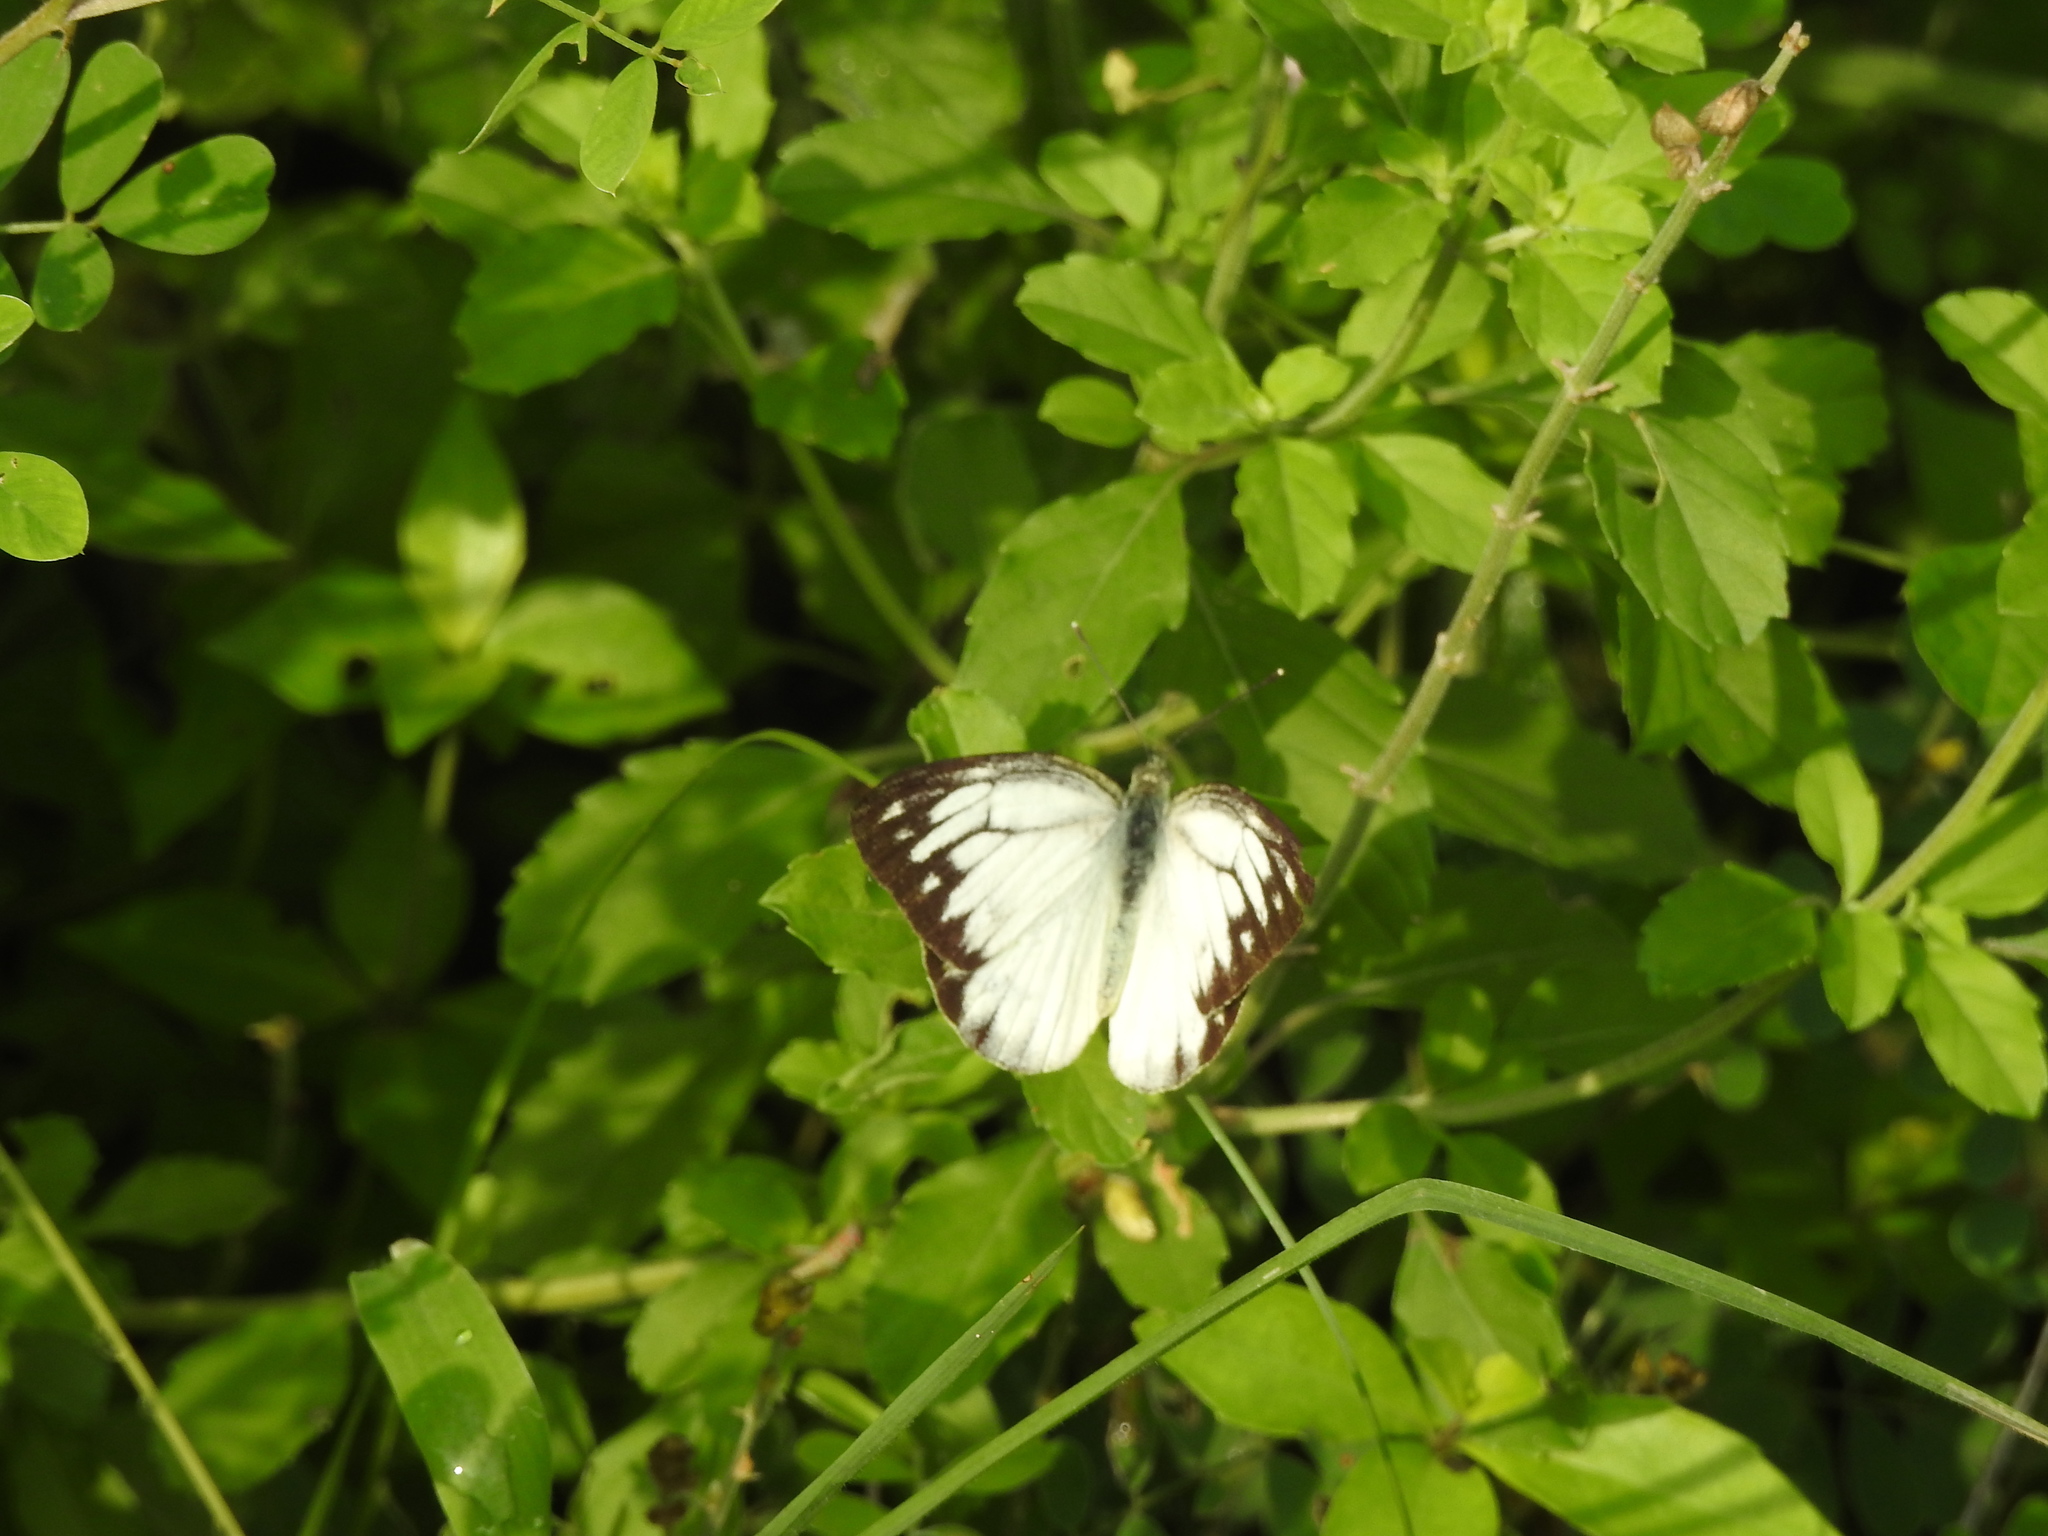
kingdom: Animalia
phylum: Arthropoda
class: Insecta
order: Lepidoptera
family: Pieridae
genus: Cepora
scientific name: Cepora nerissa
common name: Common gull
